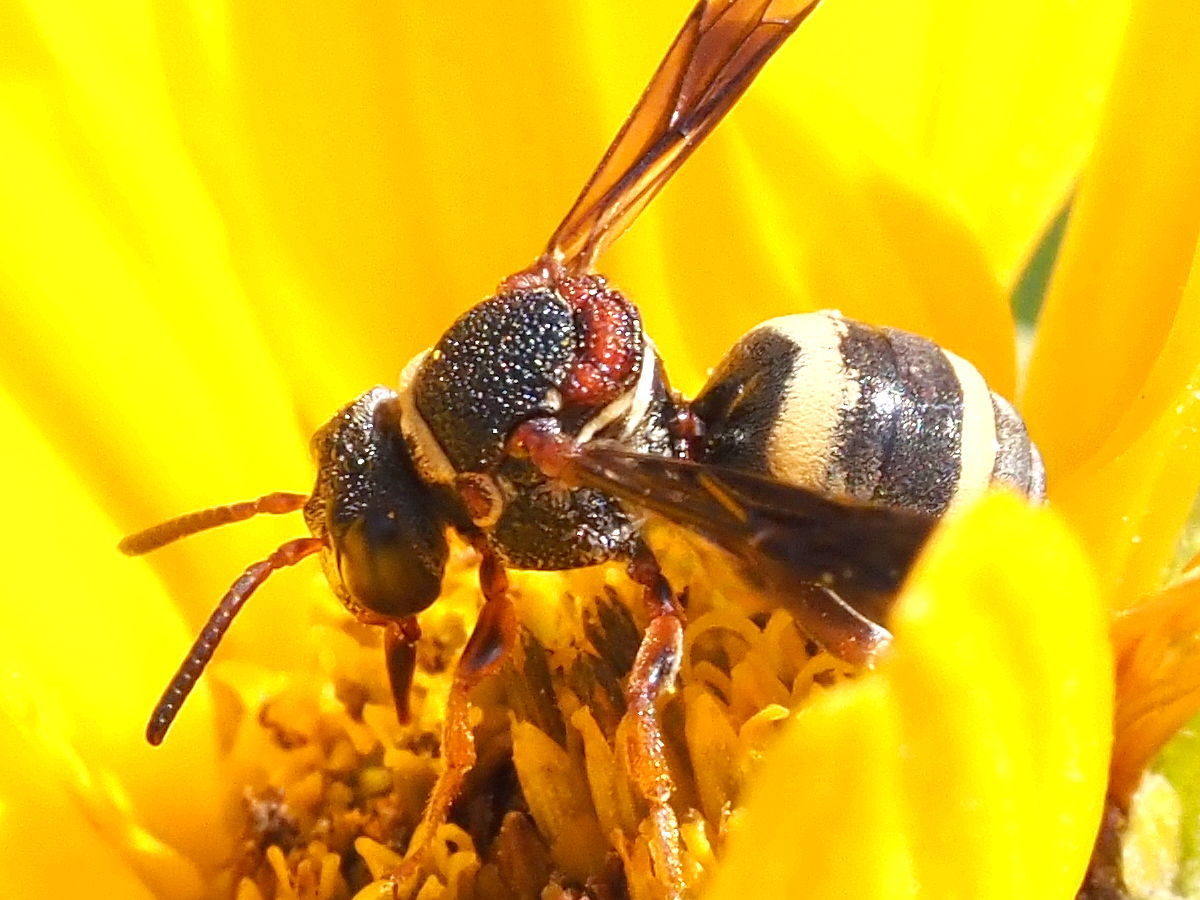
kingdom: Animalia
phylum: Arthropoda
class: Insecta
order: Hymenoptera
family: Apidae
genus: Epeolus
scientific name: Epeolus bifasciatus
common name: Two-banded cellophane-cuckoo
